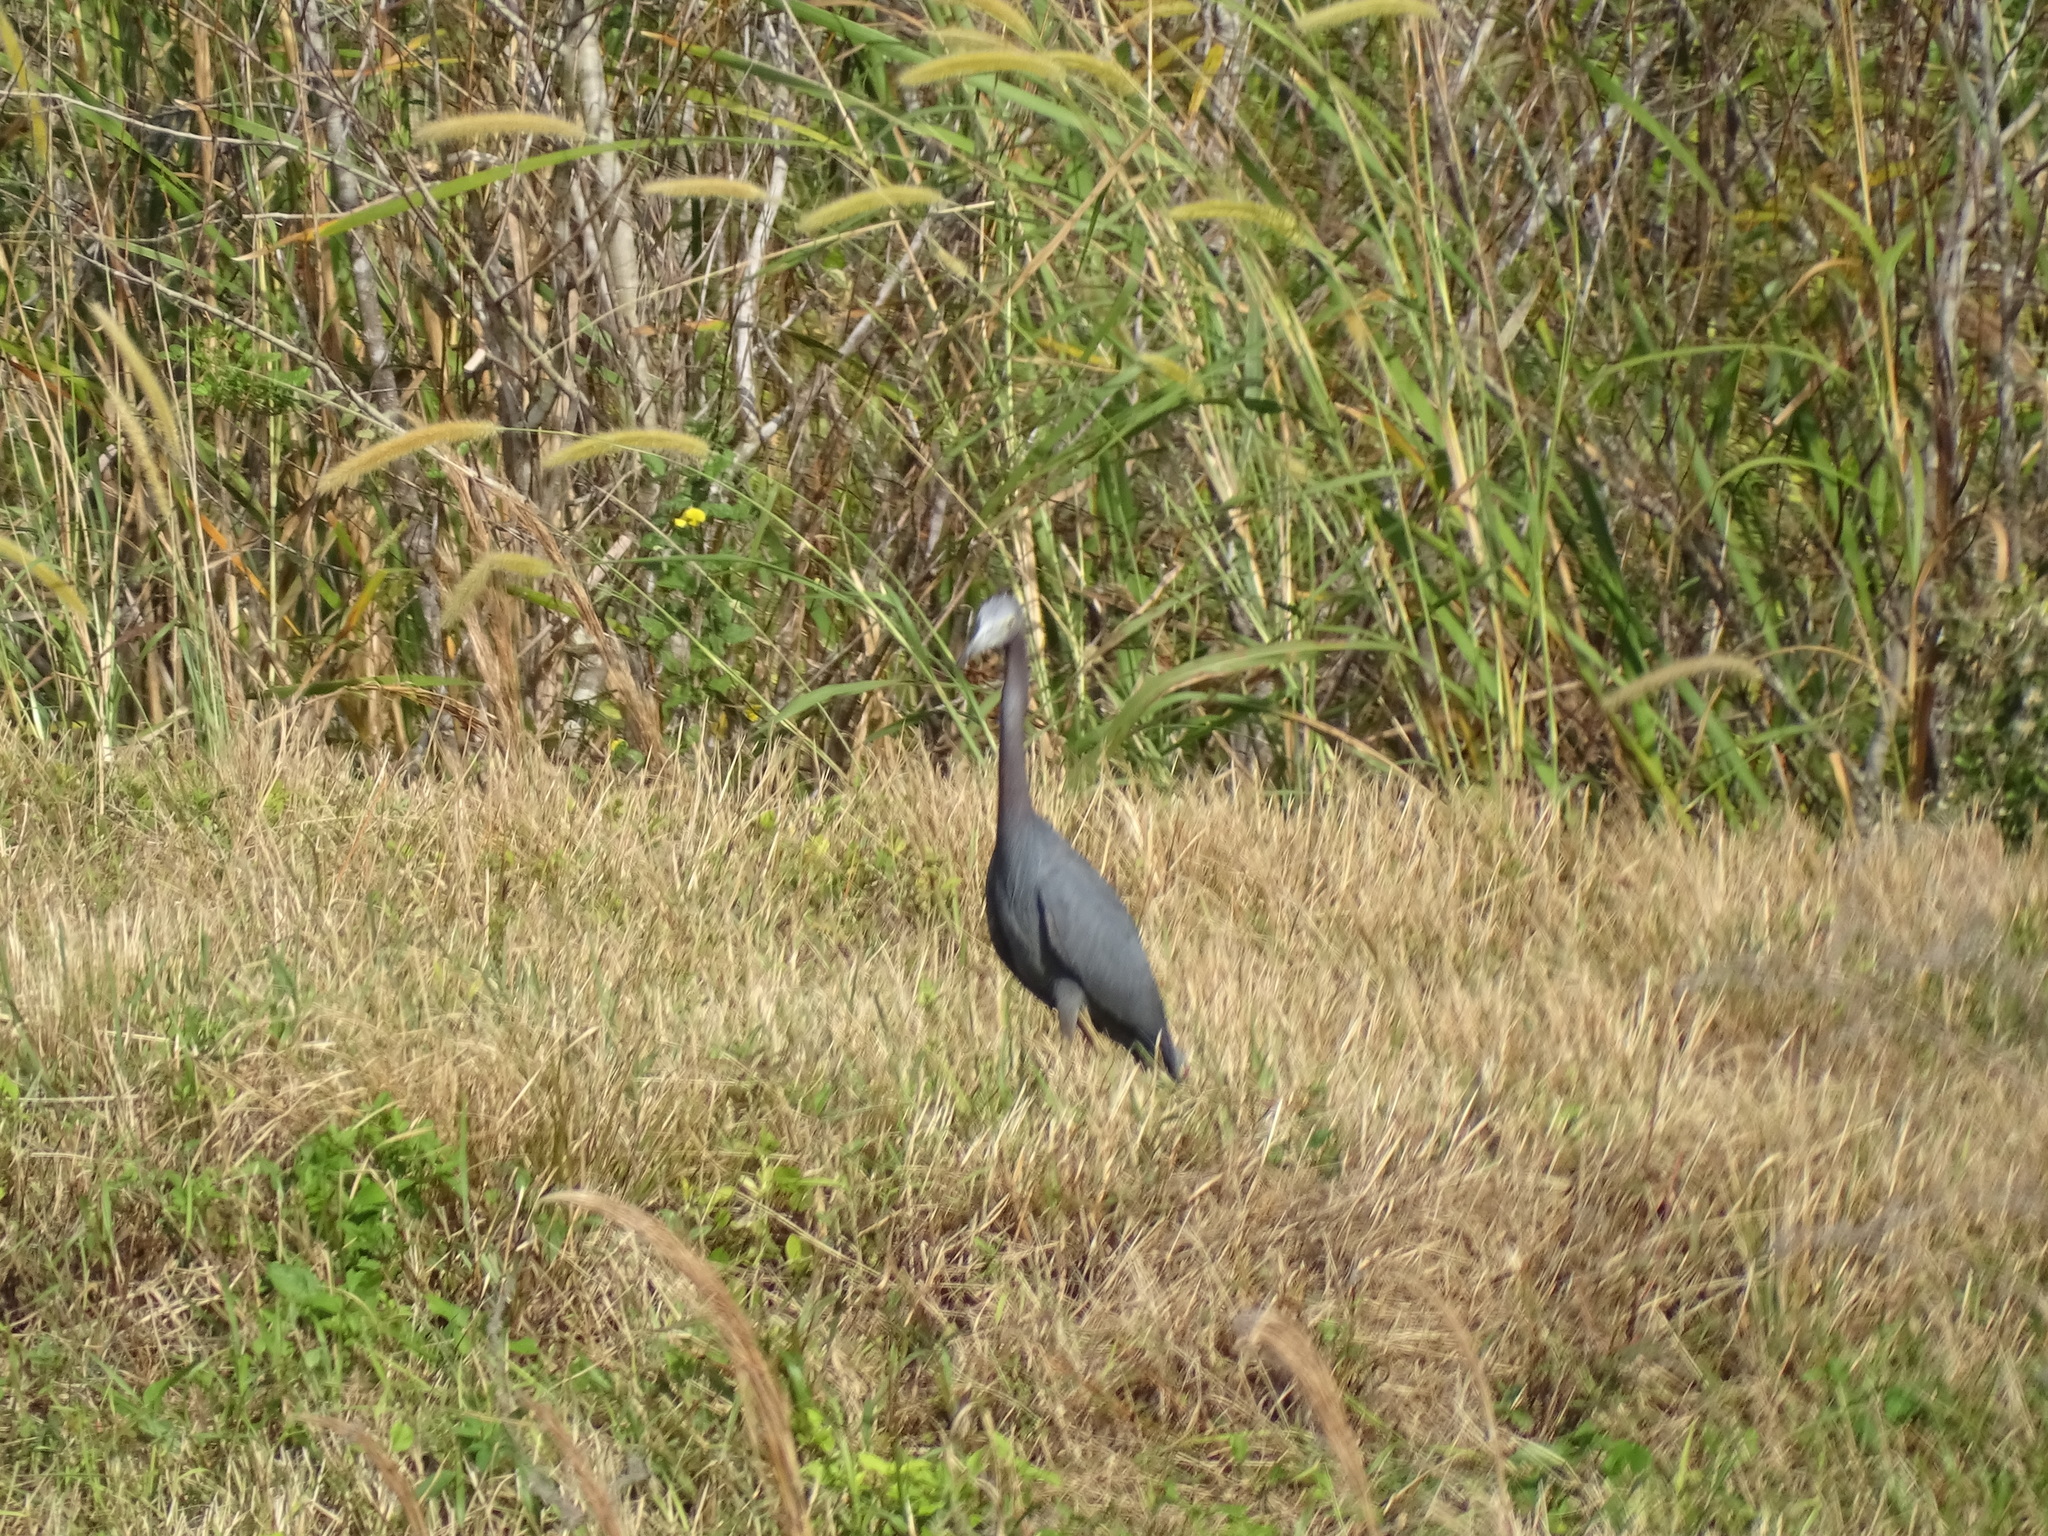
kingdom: Animalia
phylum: Chordata
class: Aves
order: Pelecaniformes
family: Ardeidae
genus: Egretta
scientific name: Egretta caerulea
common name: Little blue heron
